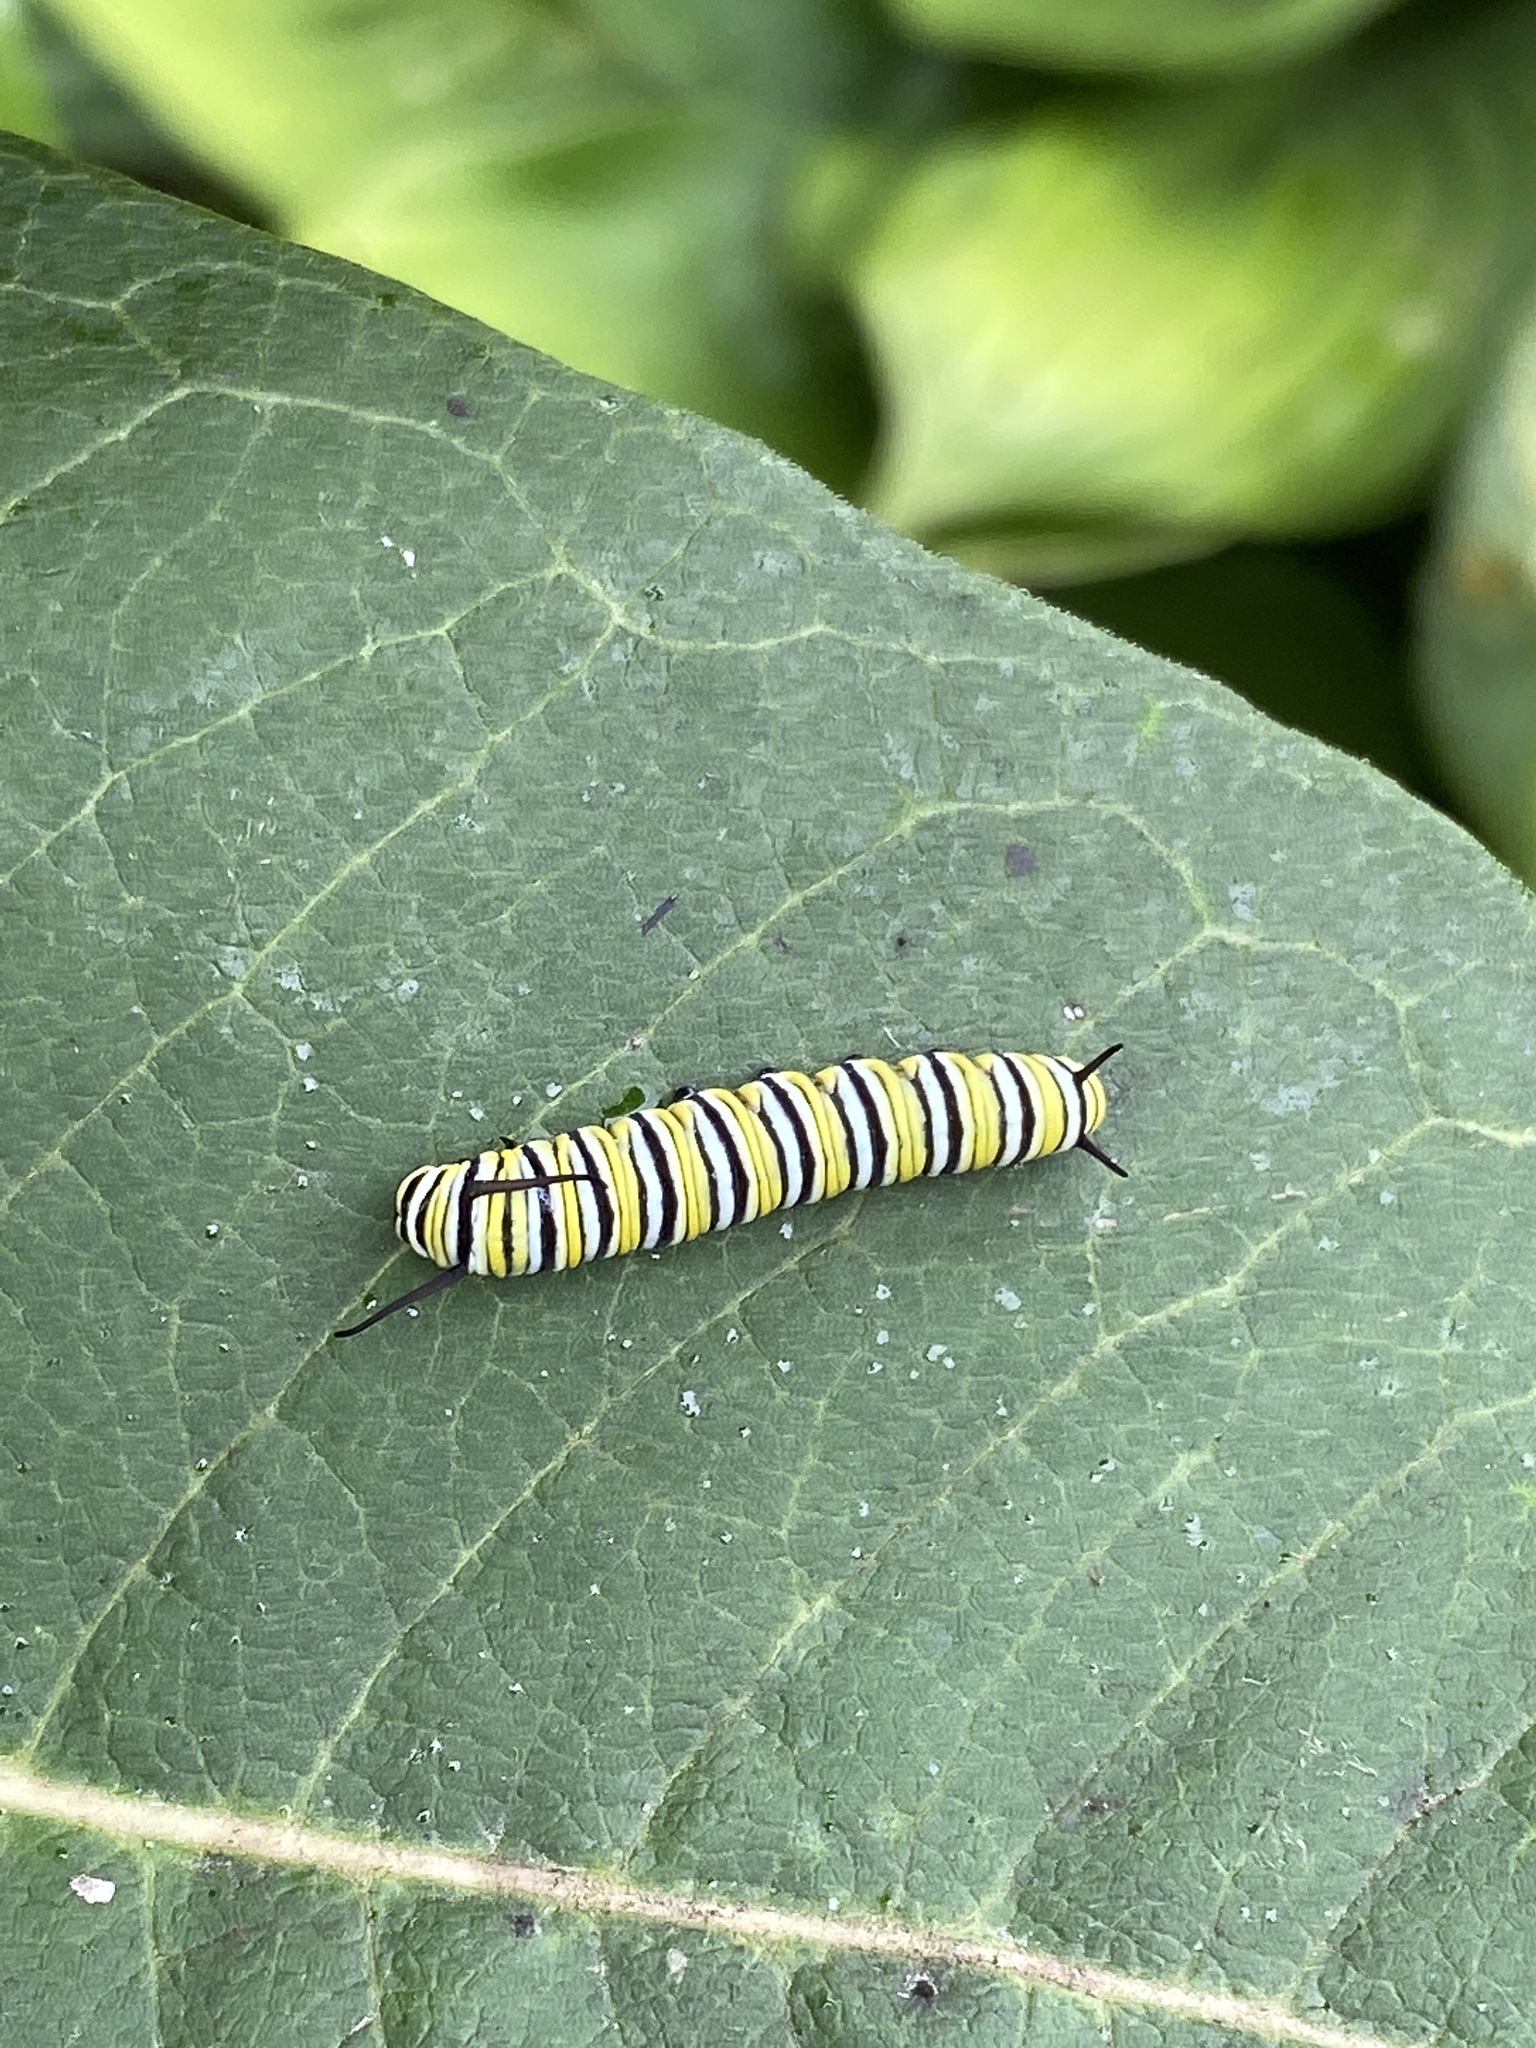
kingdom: Animalia
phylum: Arthropoda
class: Insecta
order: Lepidoptera
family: Nymphalidae
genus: Danaus
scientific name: Danaus plexippus
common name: Monarch
